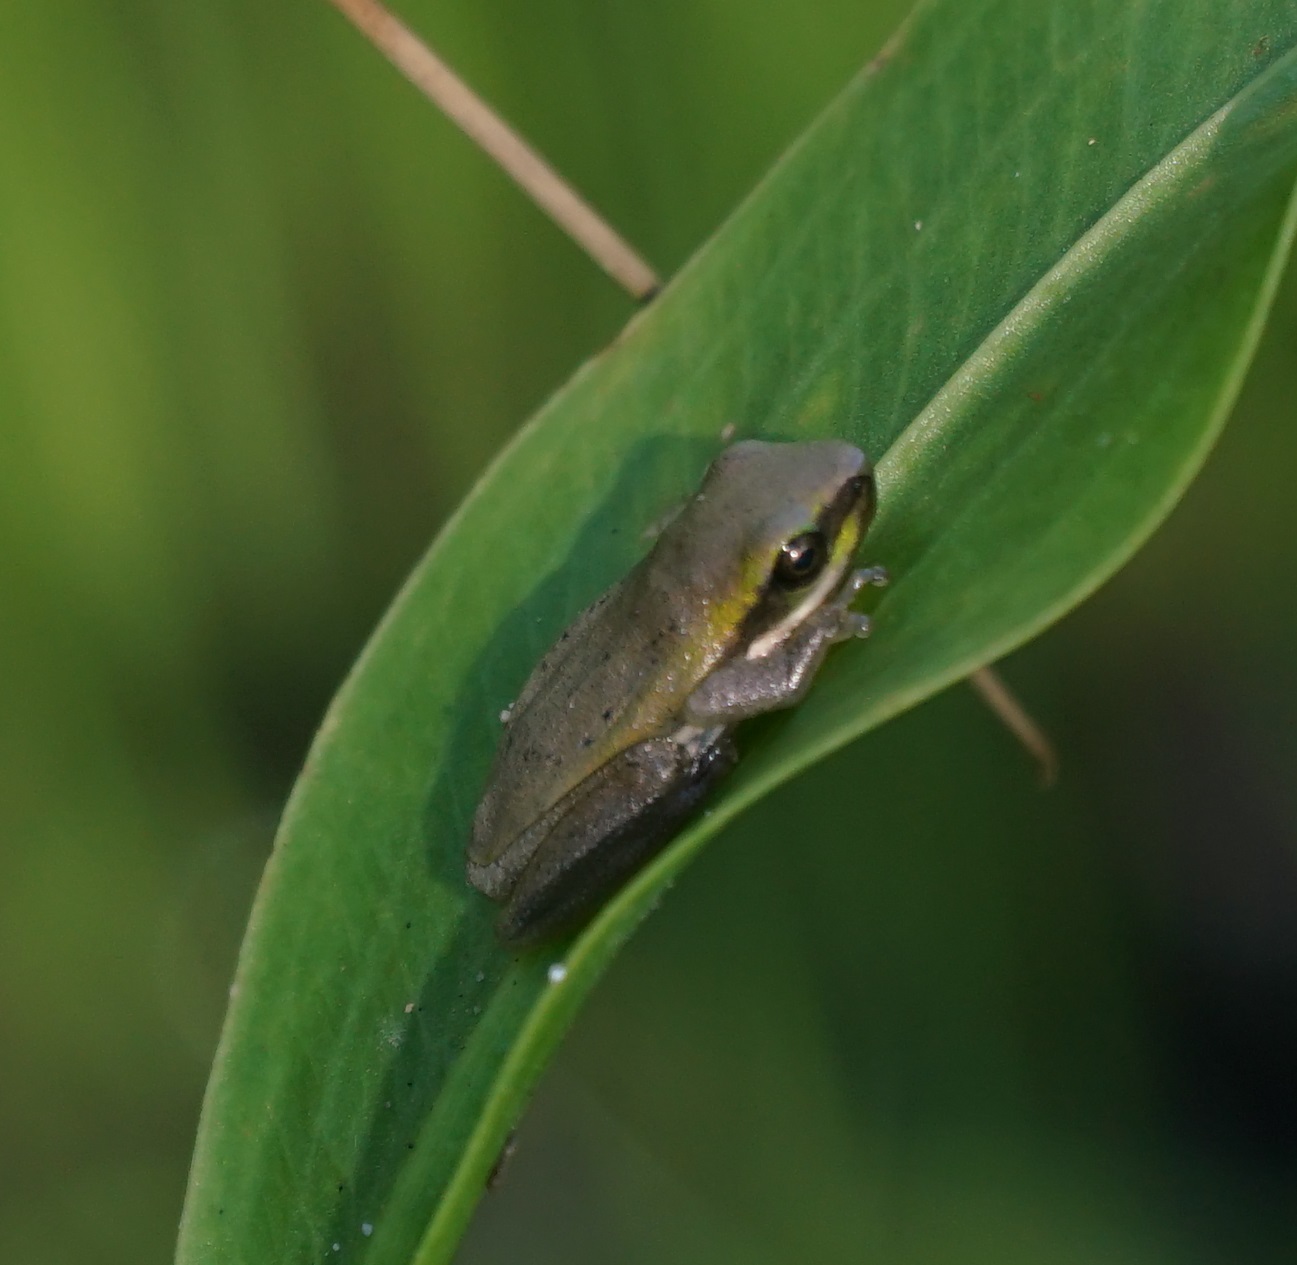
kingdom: Animalia
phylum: Chordata
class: Amphibia
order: Anura
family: Pelodryadidae
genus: Litoria
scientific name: Litoria fallax
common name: Eastern dwarf treefrog
